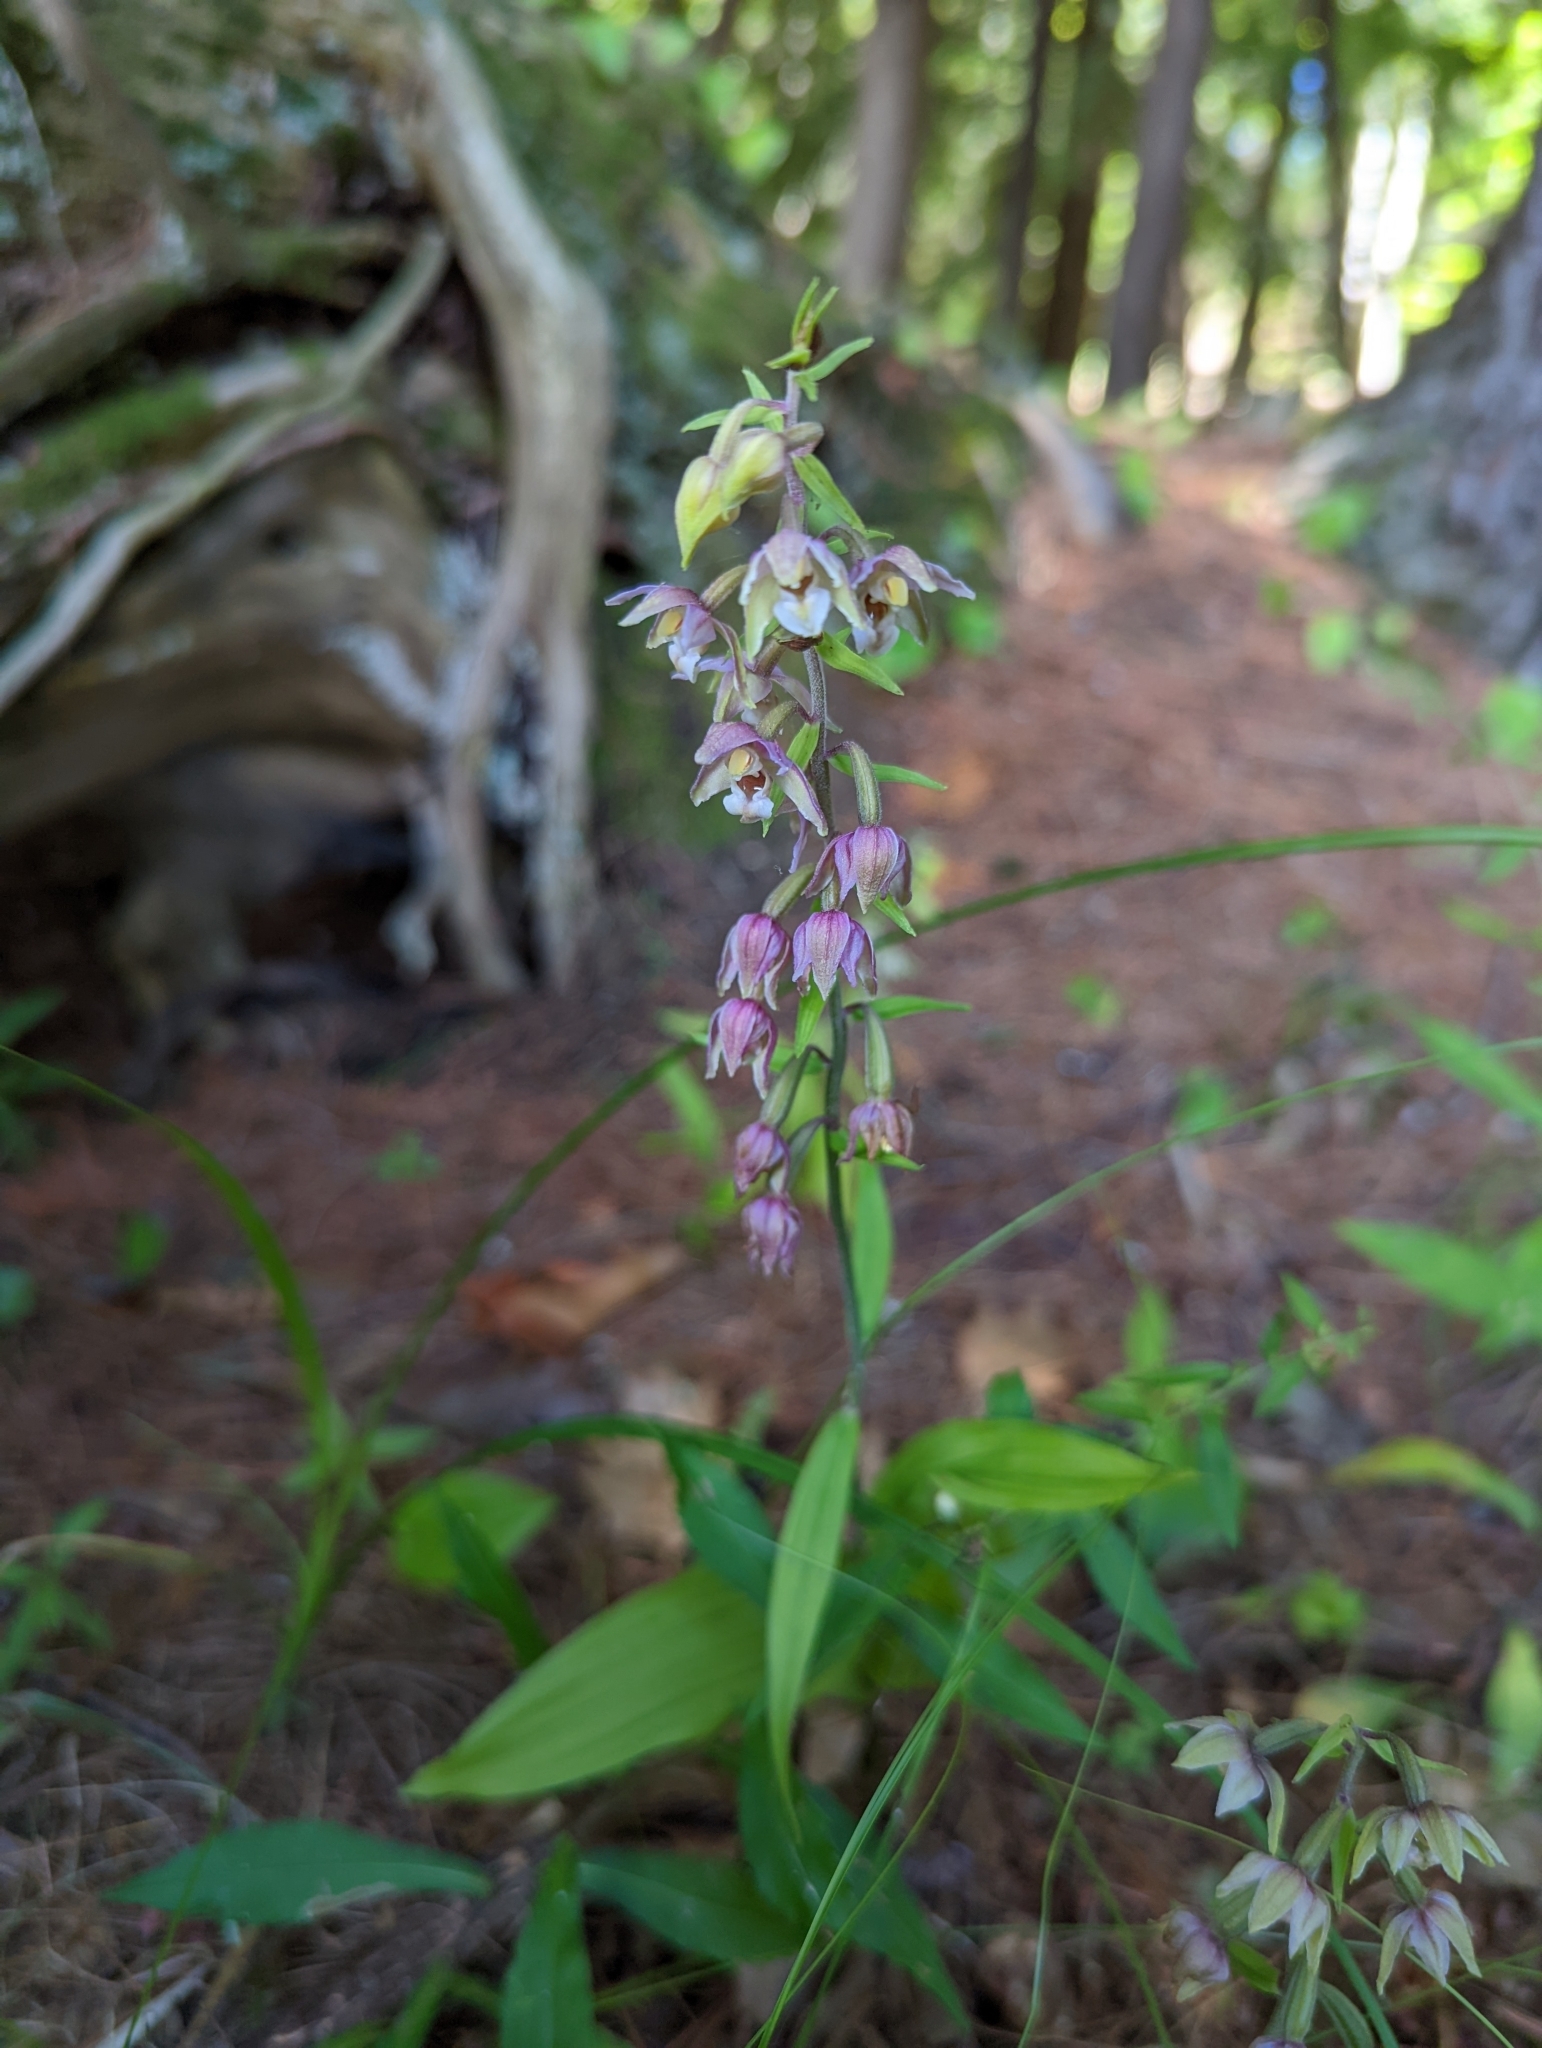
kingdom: Plantae
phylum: Tracheophyta
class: Liliopsida
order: Asparagales
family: Orchidaceae
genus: Epipactis
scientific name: Epipactis helleborine
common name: Broad-leaved helleborine
